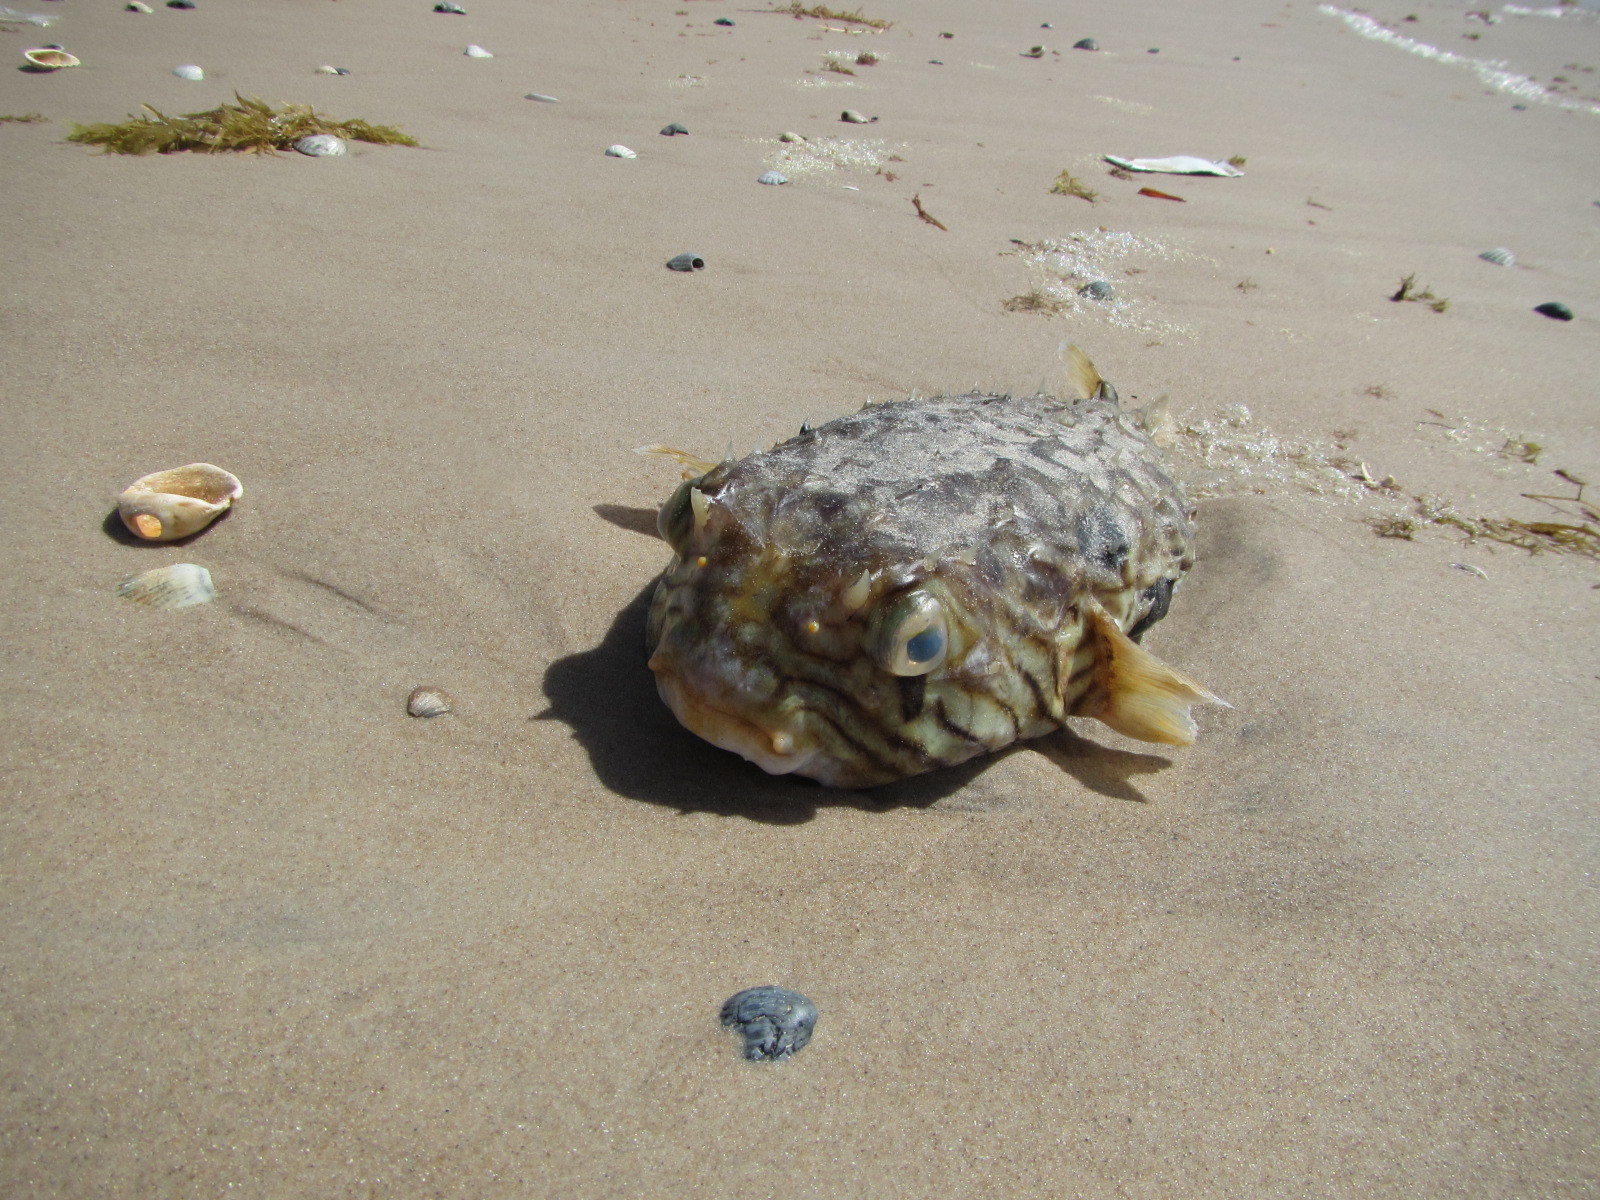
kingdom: Animalia
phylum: Chordata
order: Tetraodontiformes
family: Diodontidae
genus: Chilomycterus
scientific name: Chilomycterus spinosus
